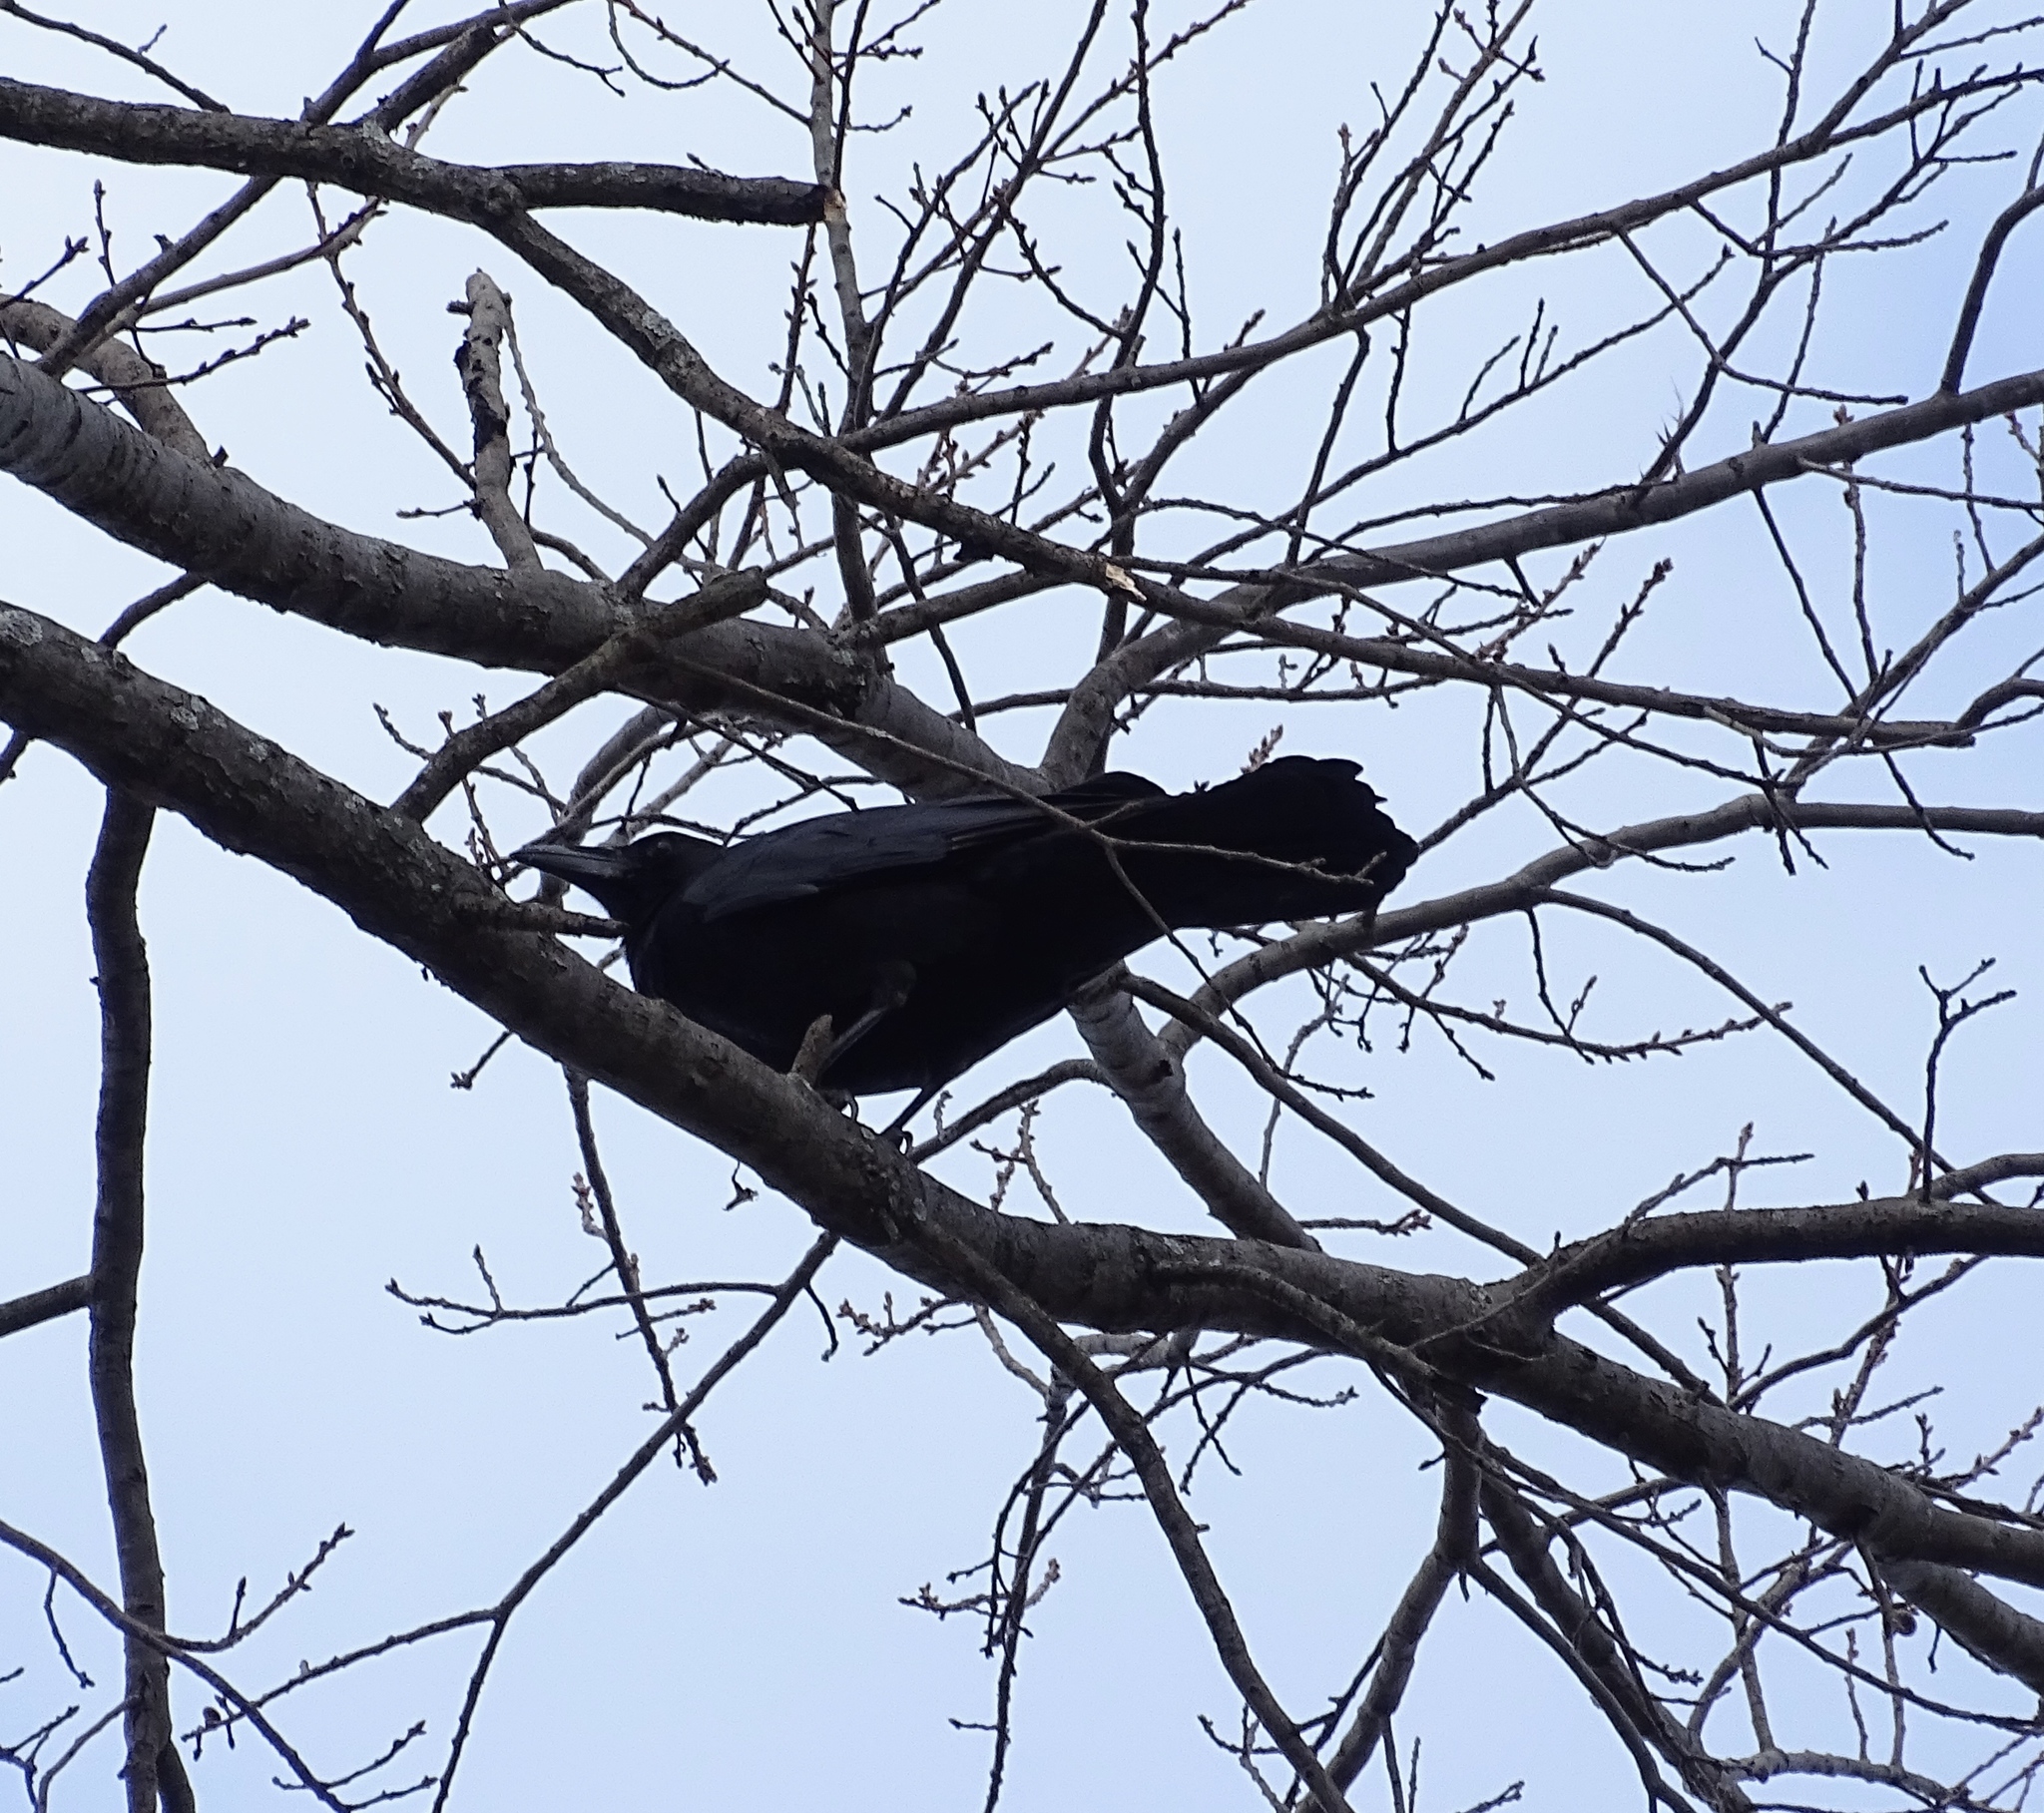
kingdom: Animalia
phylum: Chordata
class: Aves
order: Passeriformes
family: Corvidae
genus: Corvus
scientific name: Corvus brachyrhynchos
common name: American crow
